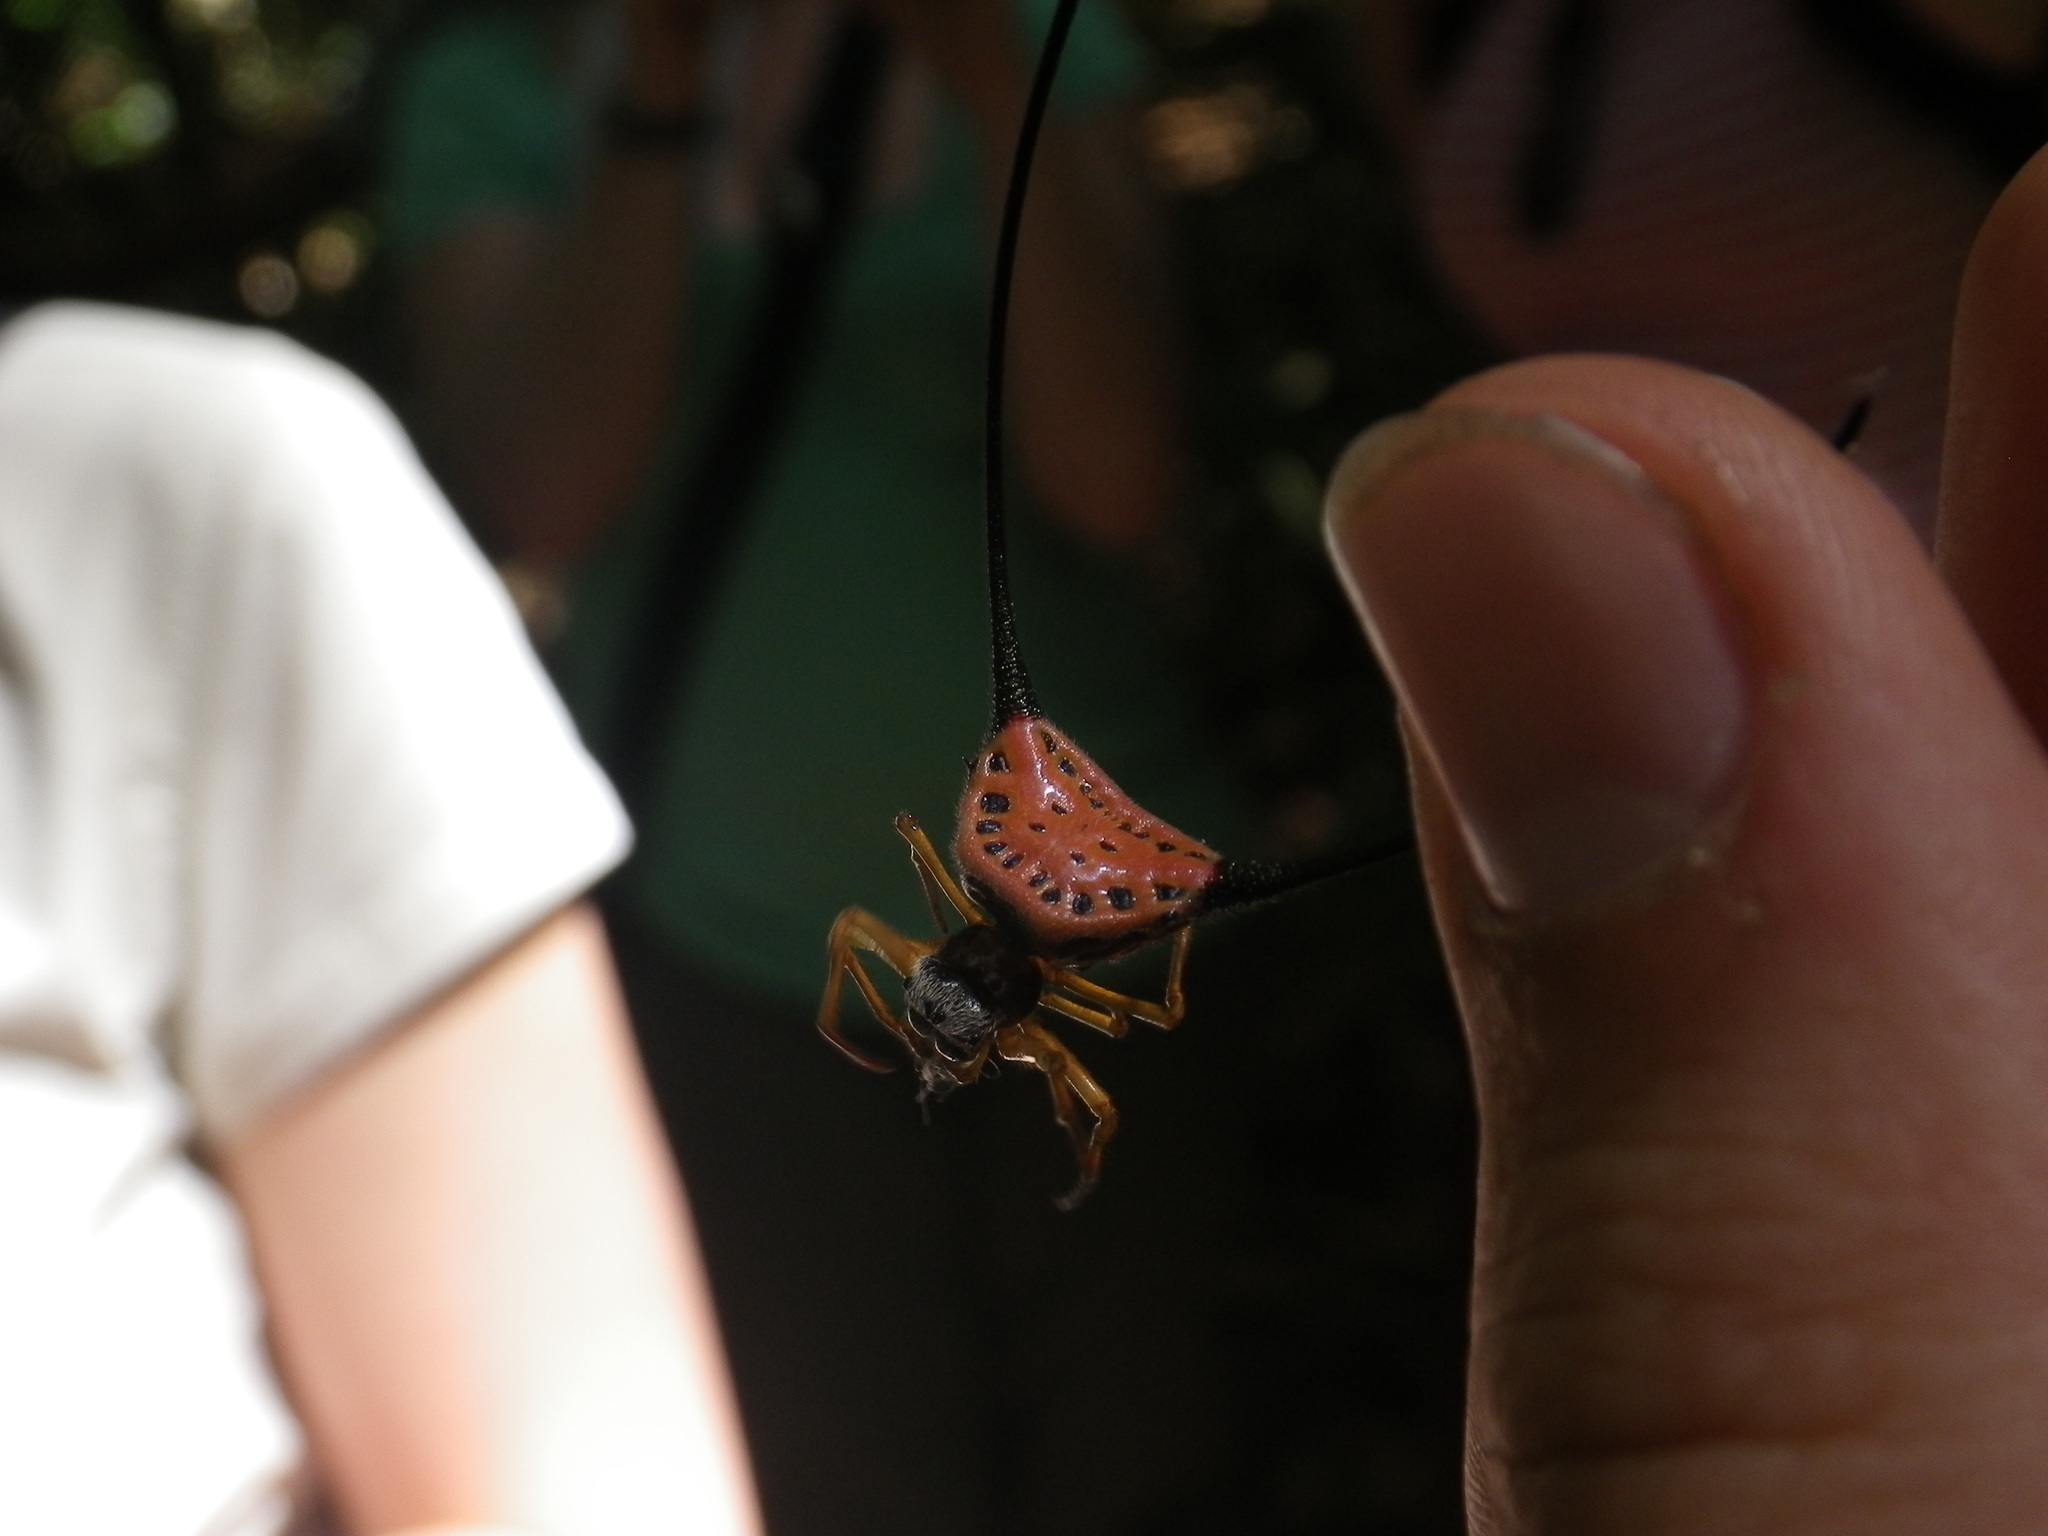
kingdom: Animalia
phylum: Arthropoda
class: Arachnida
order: Araneae
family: Araneidae
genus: Macracantha
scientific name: Macracantha arcuata
